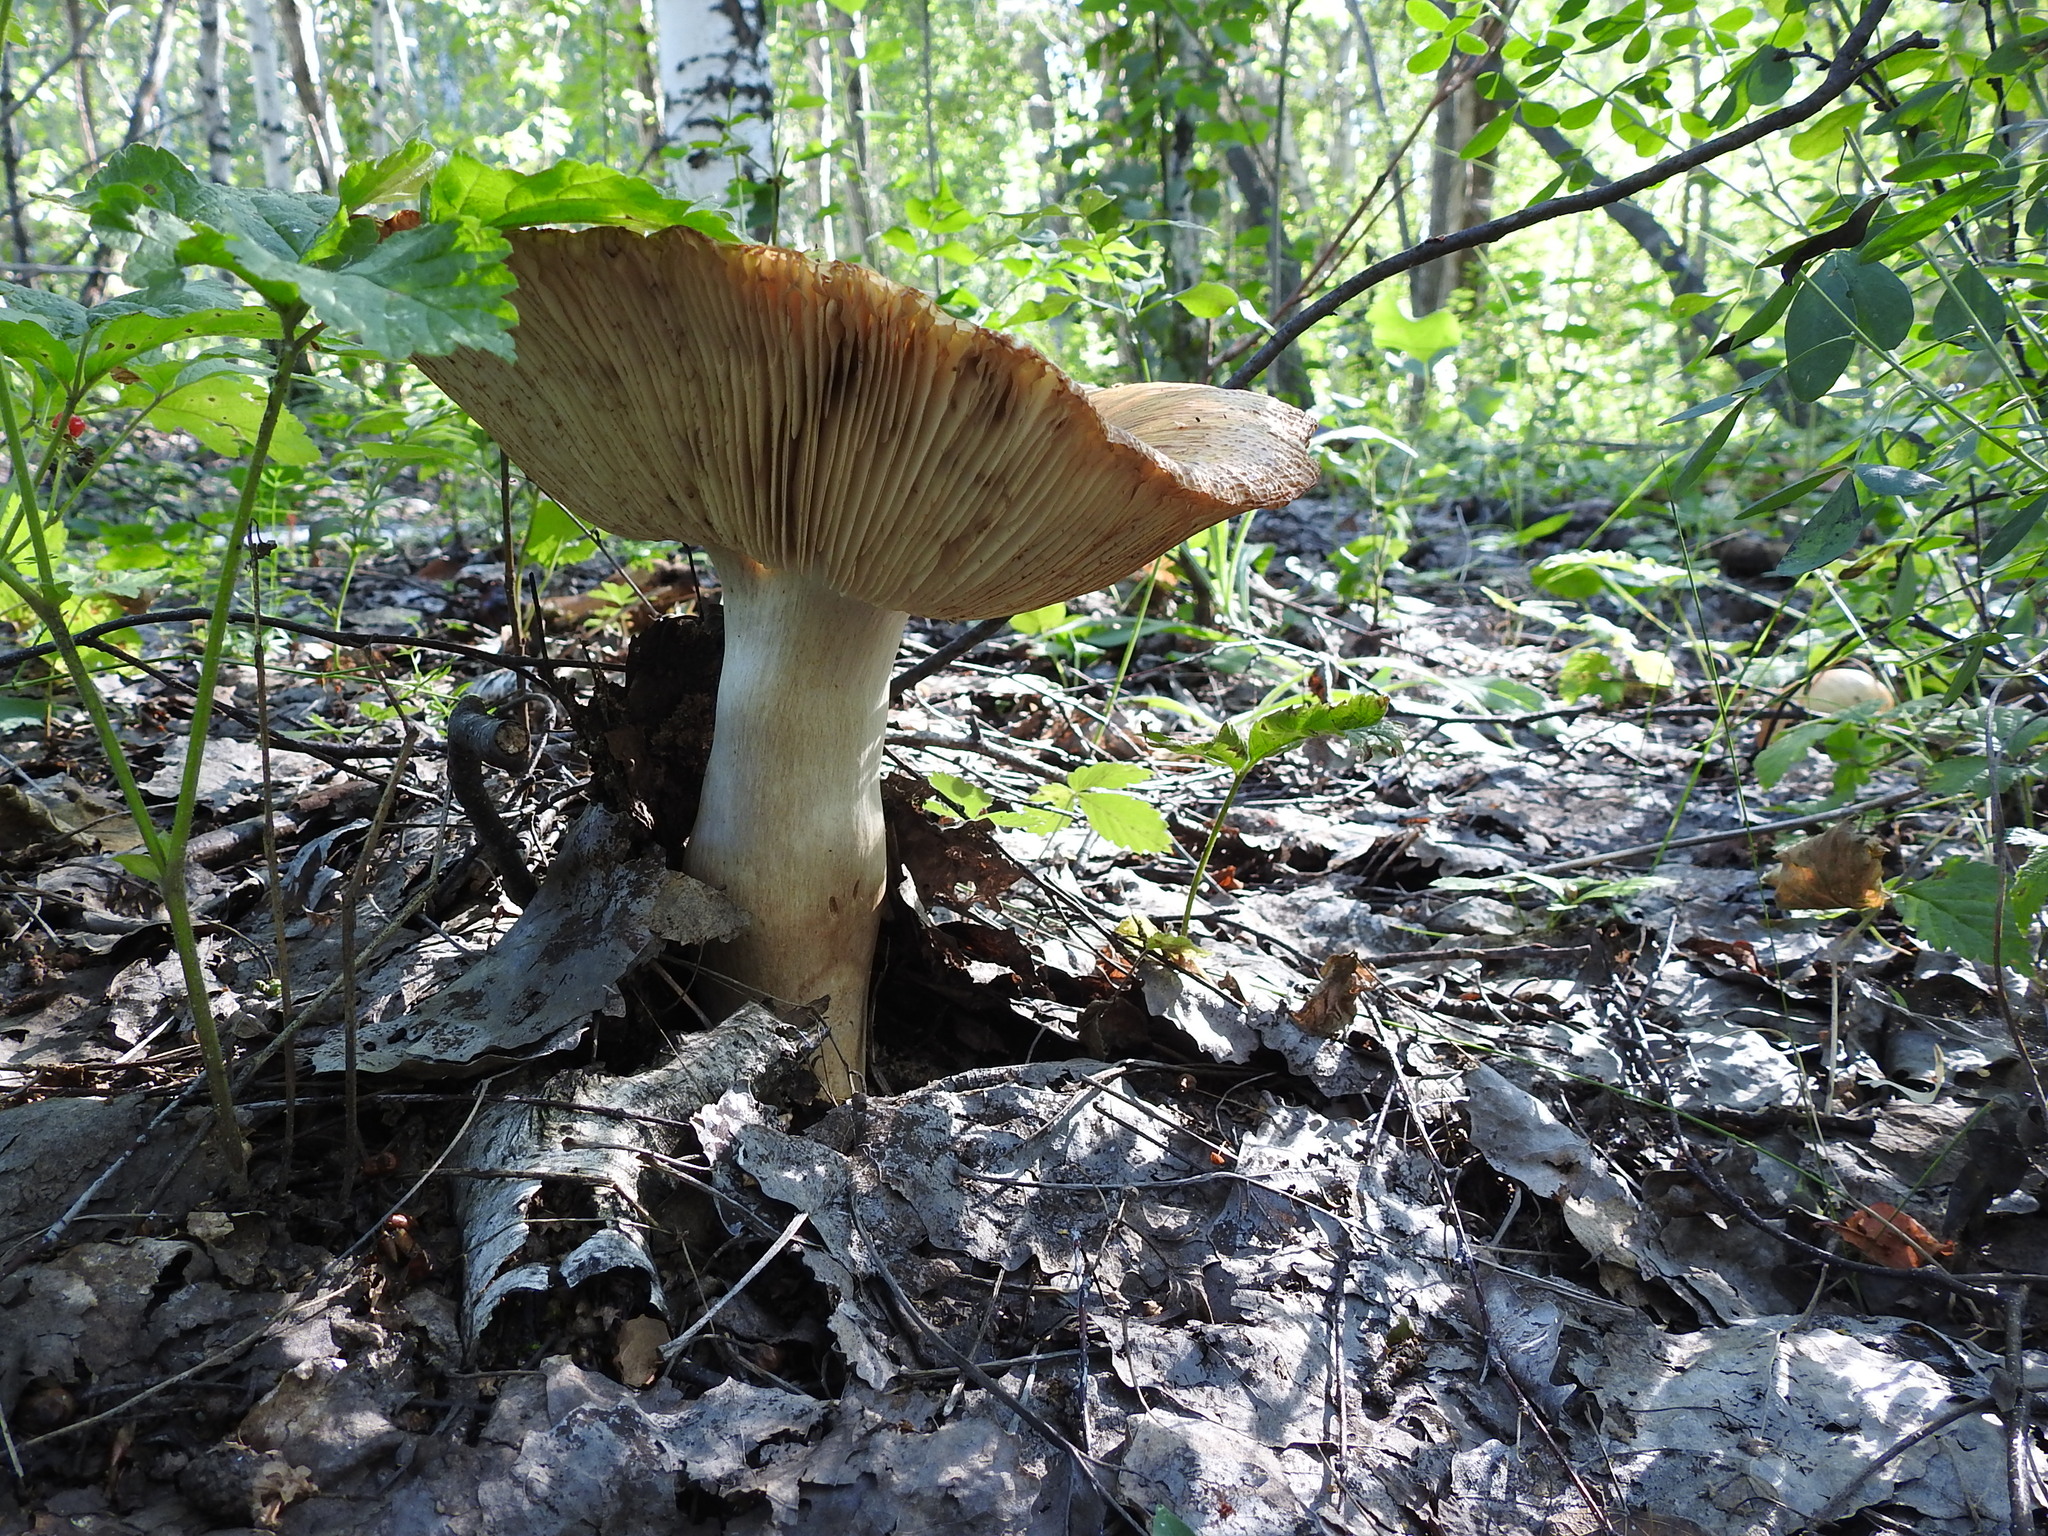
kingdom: Fungi
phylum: Basidiomycota
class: Agaricomycetes
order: Russulales
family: Russulaceae
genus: Russula
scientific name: Russula foetens
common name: Foetid russula
